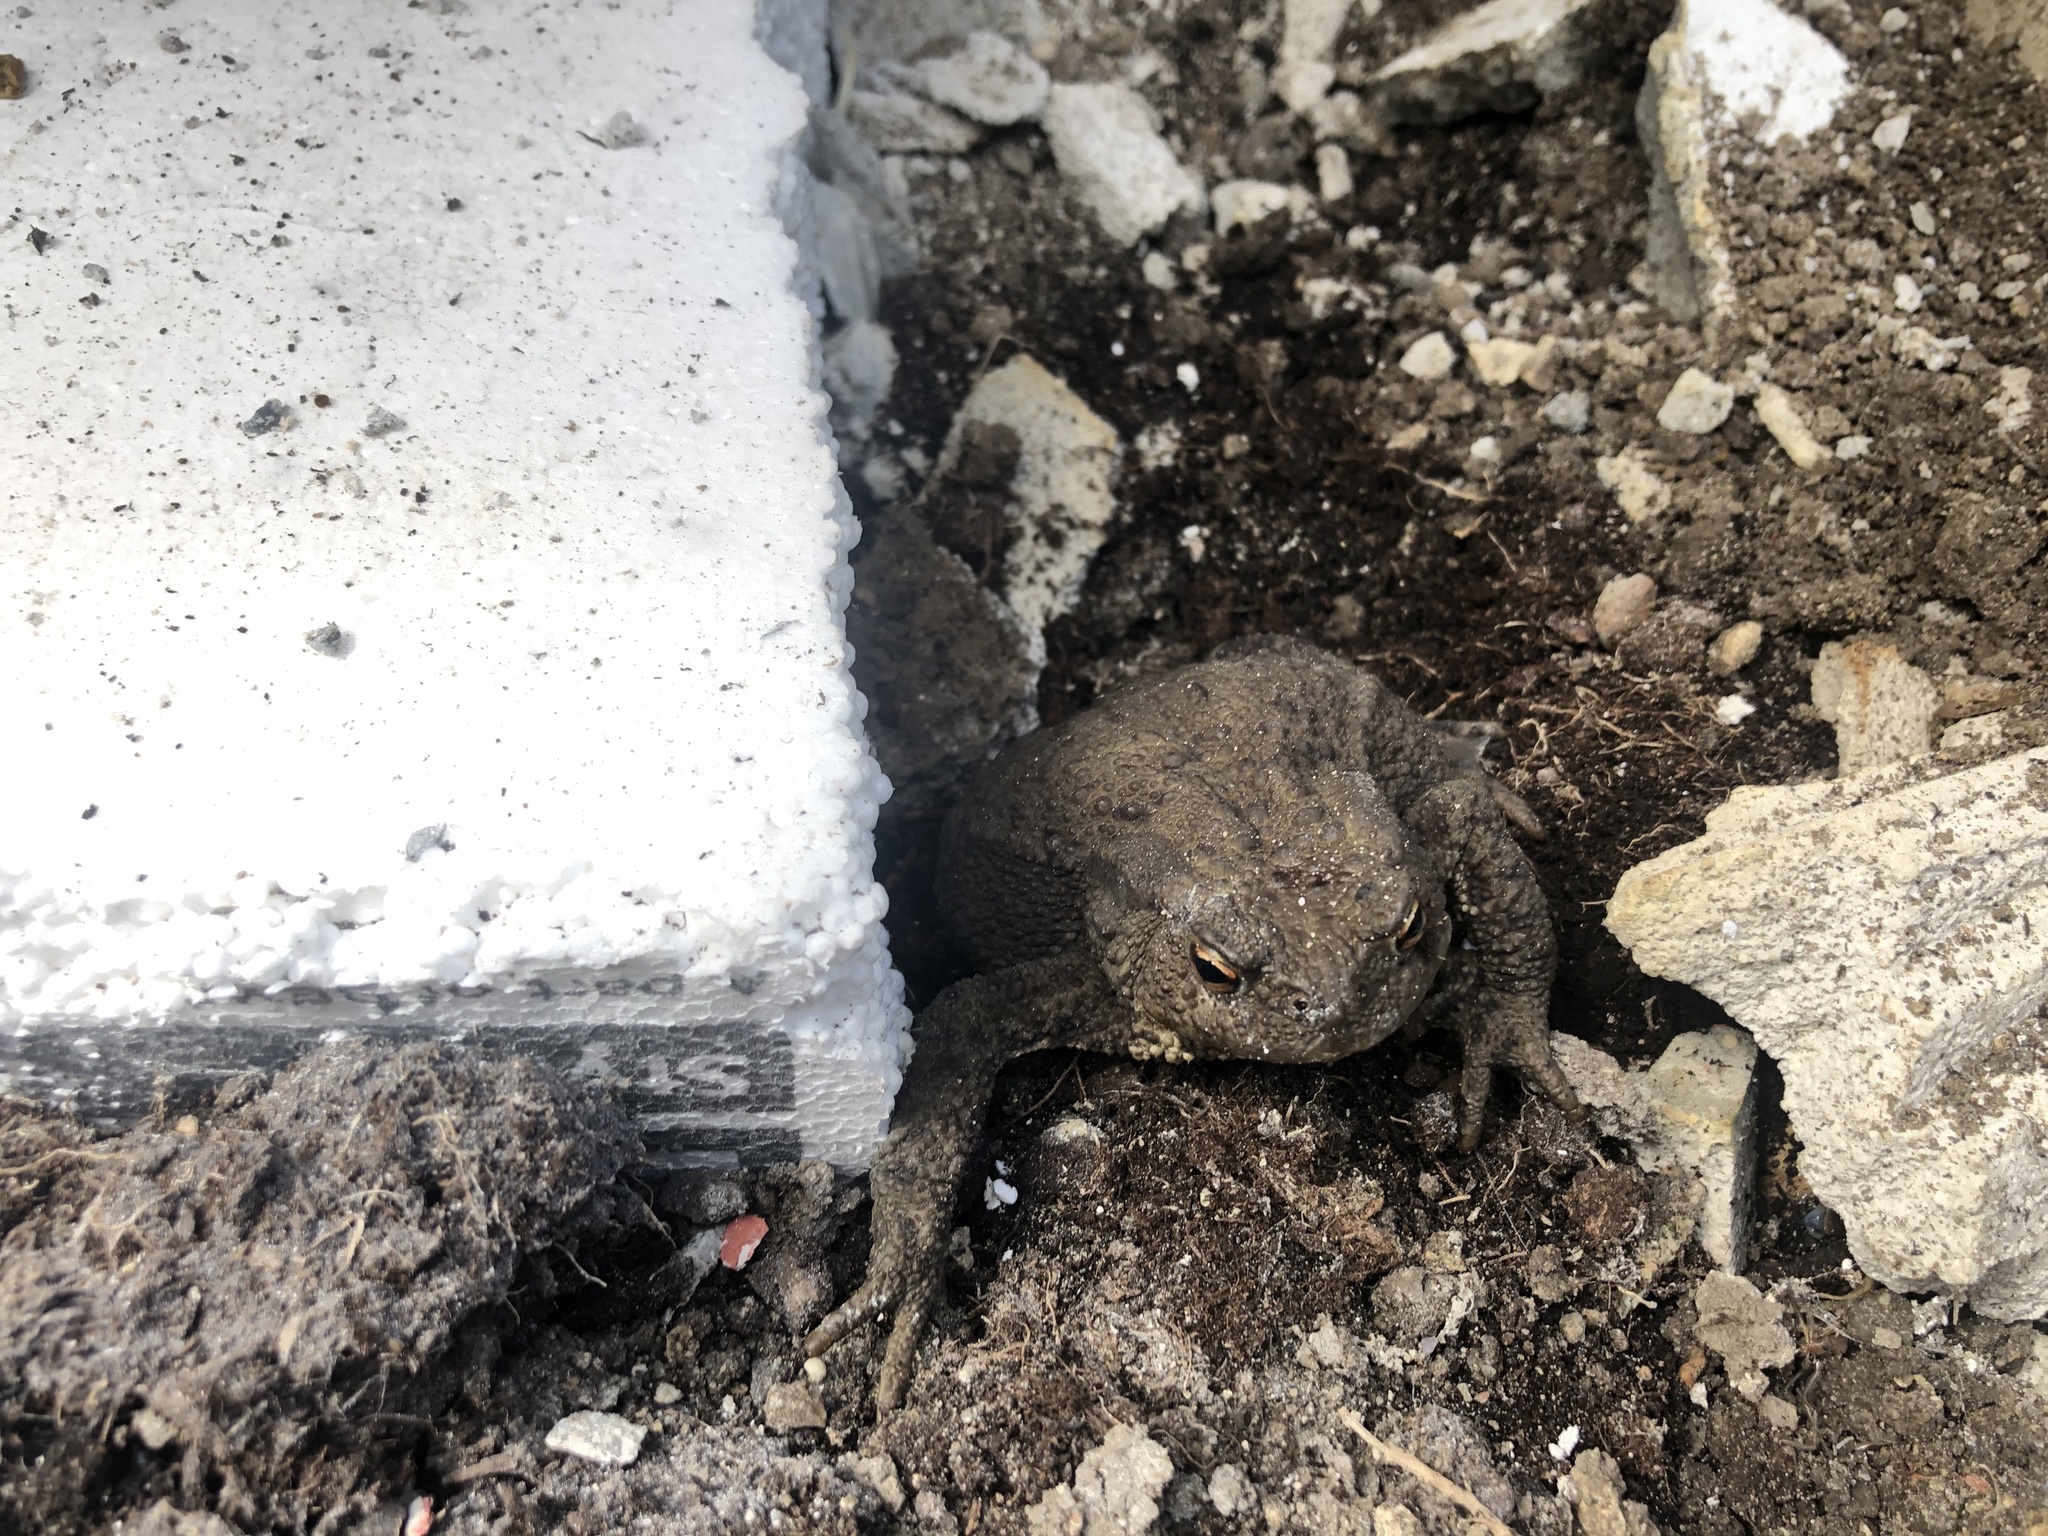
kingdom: Animalia
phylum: Chordata
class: Amphibia
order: Anura
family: Bufonidae
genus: Bufo
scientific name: Bufo bufo
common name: Common toad
